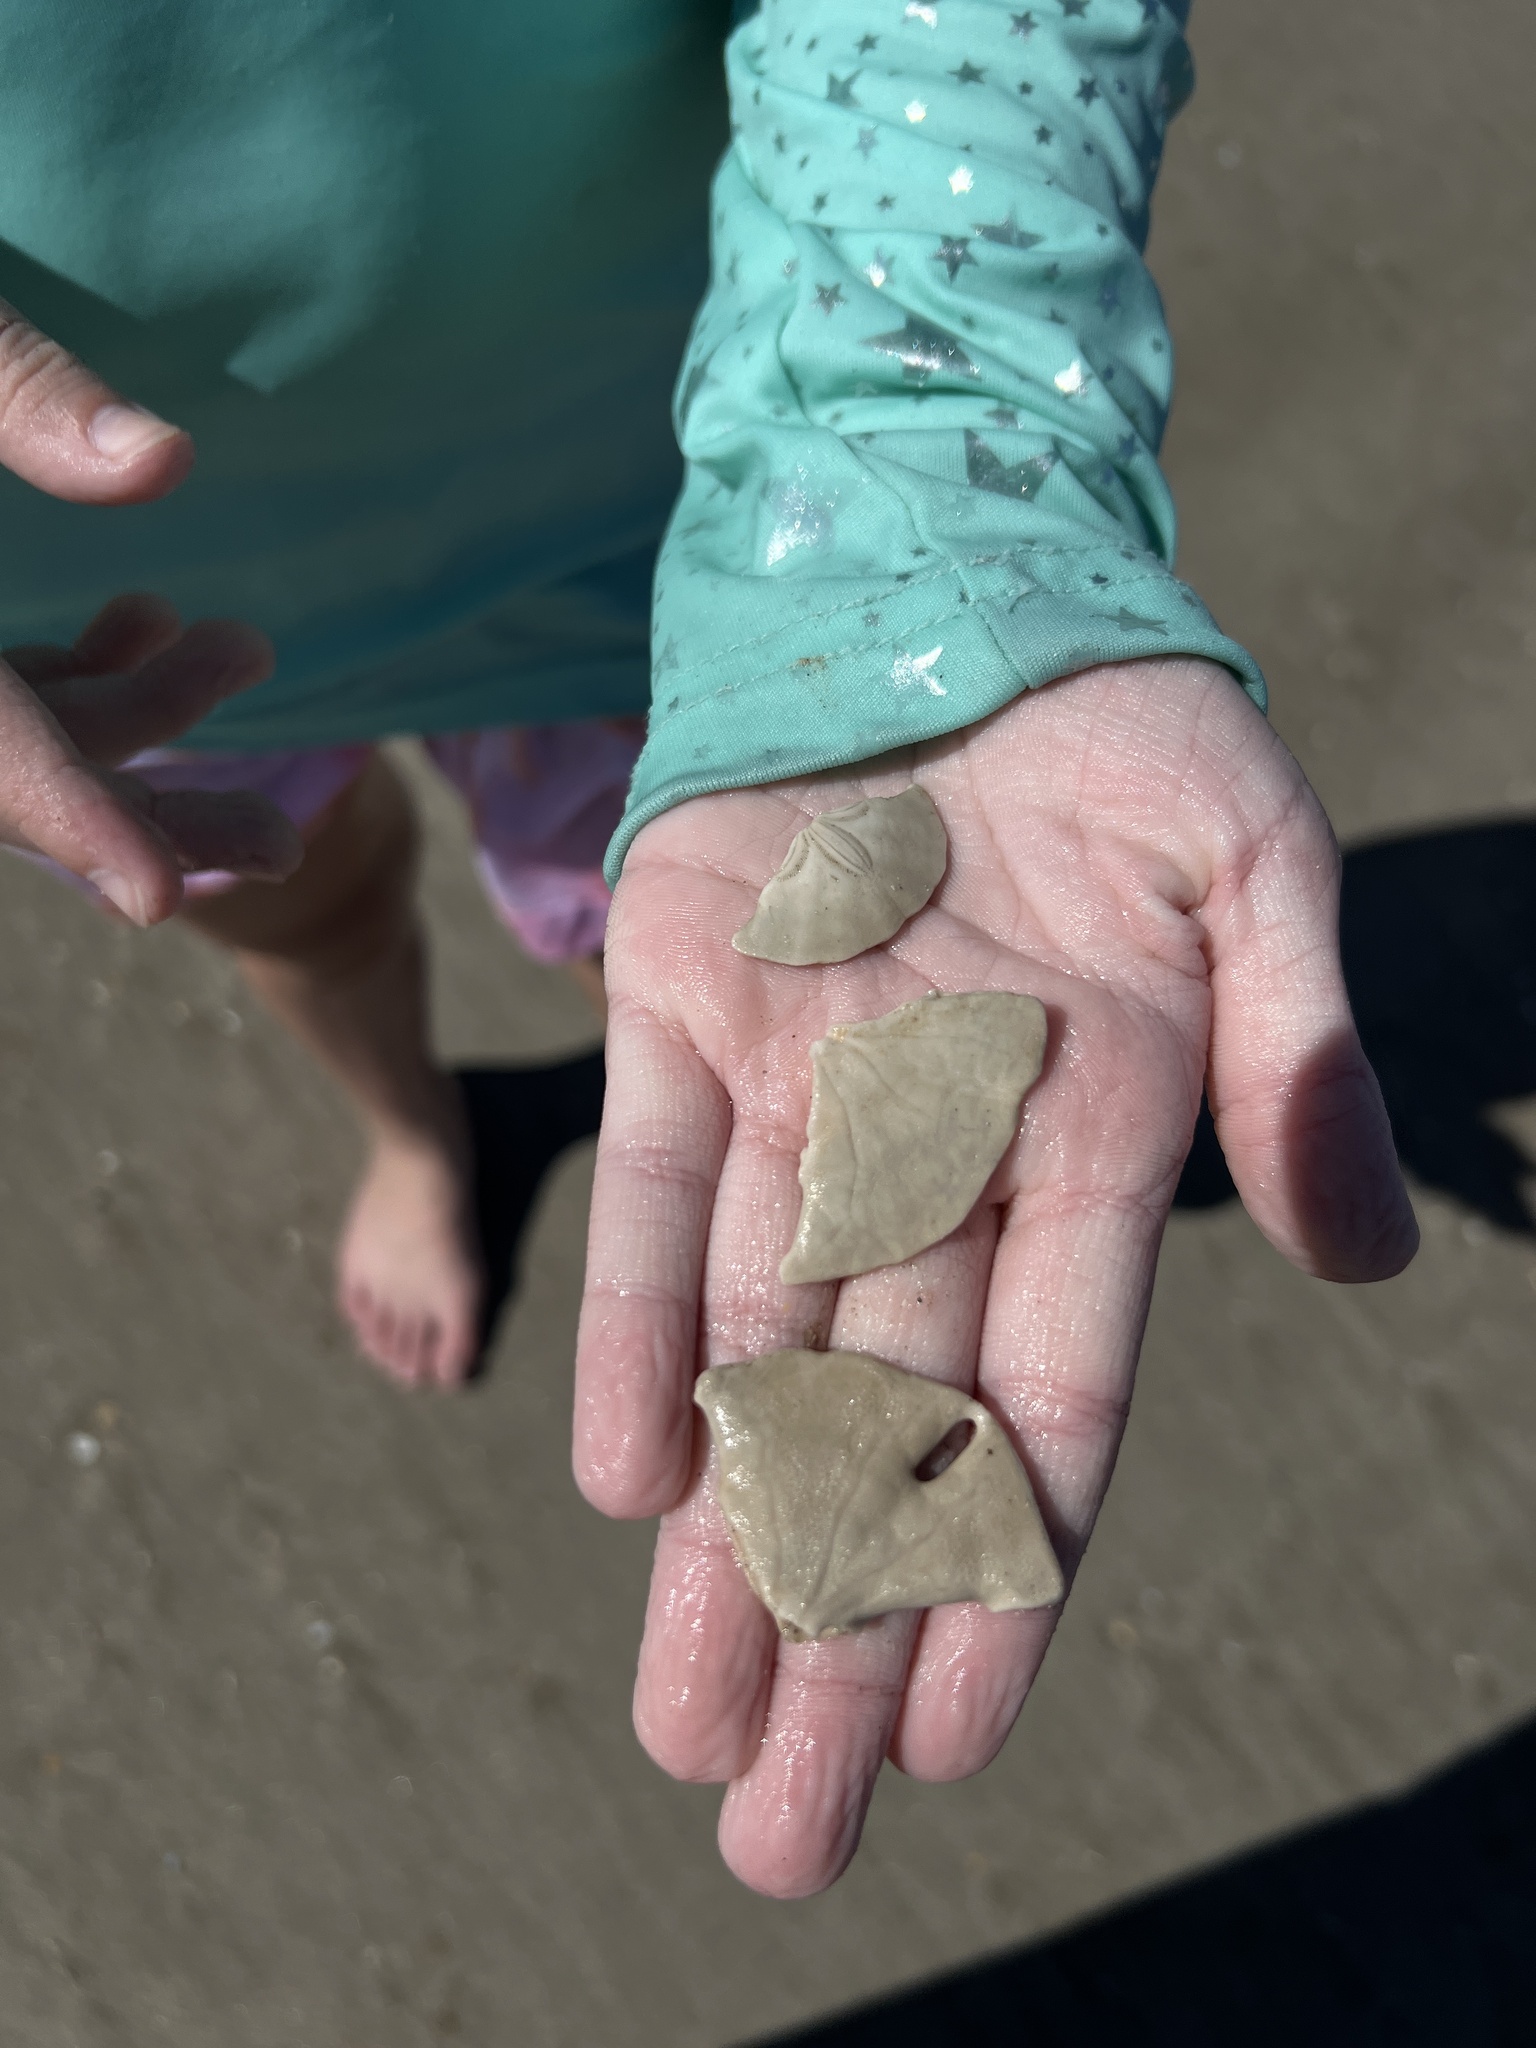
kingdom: Animalia
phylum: Echinodermata
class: Echinoidea
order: Echinolampadacea
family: Mellitidae
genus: Mellita
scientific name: Mellita quinquiesperforata
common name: Sand dollar
